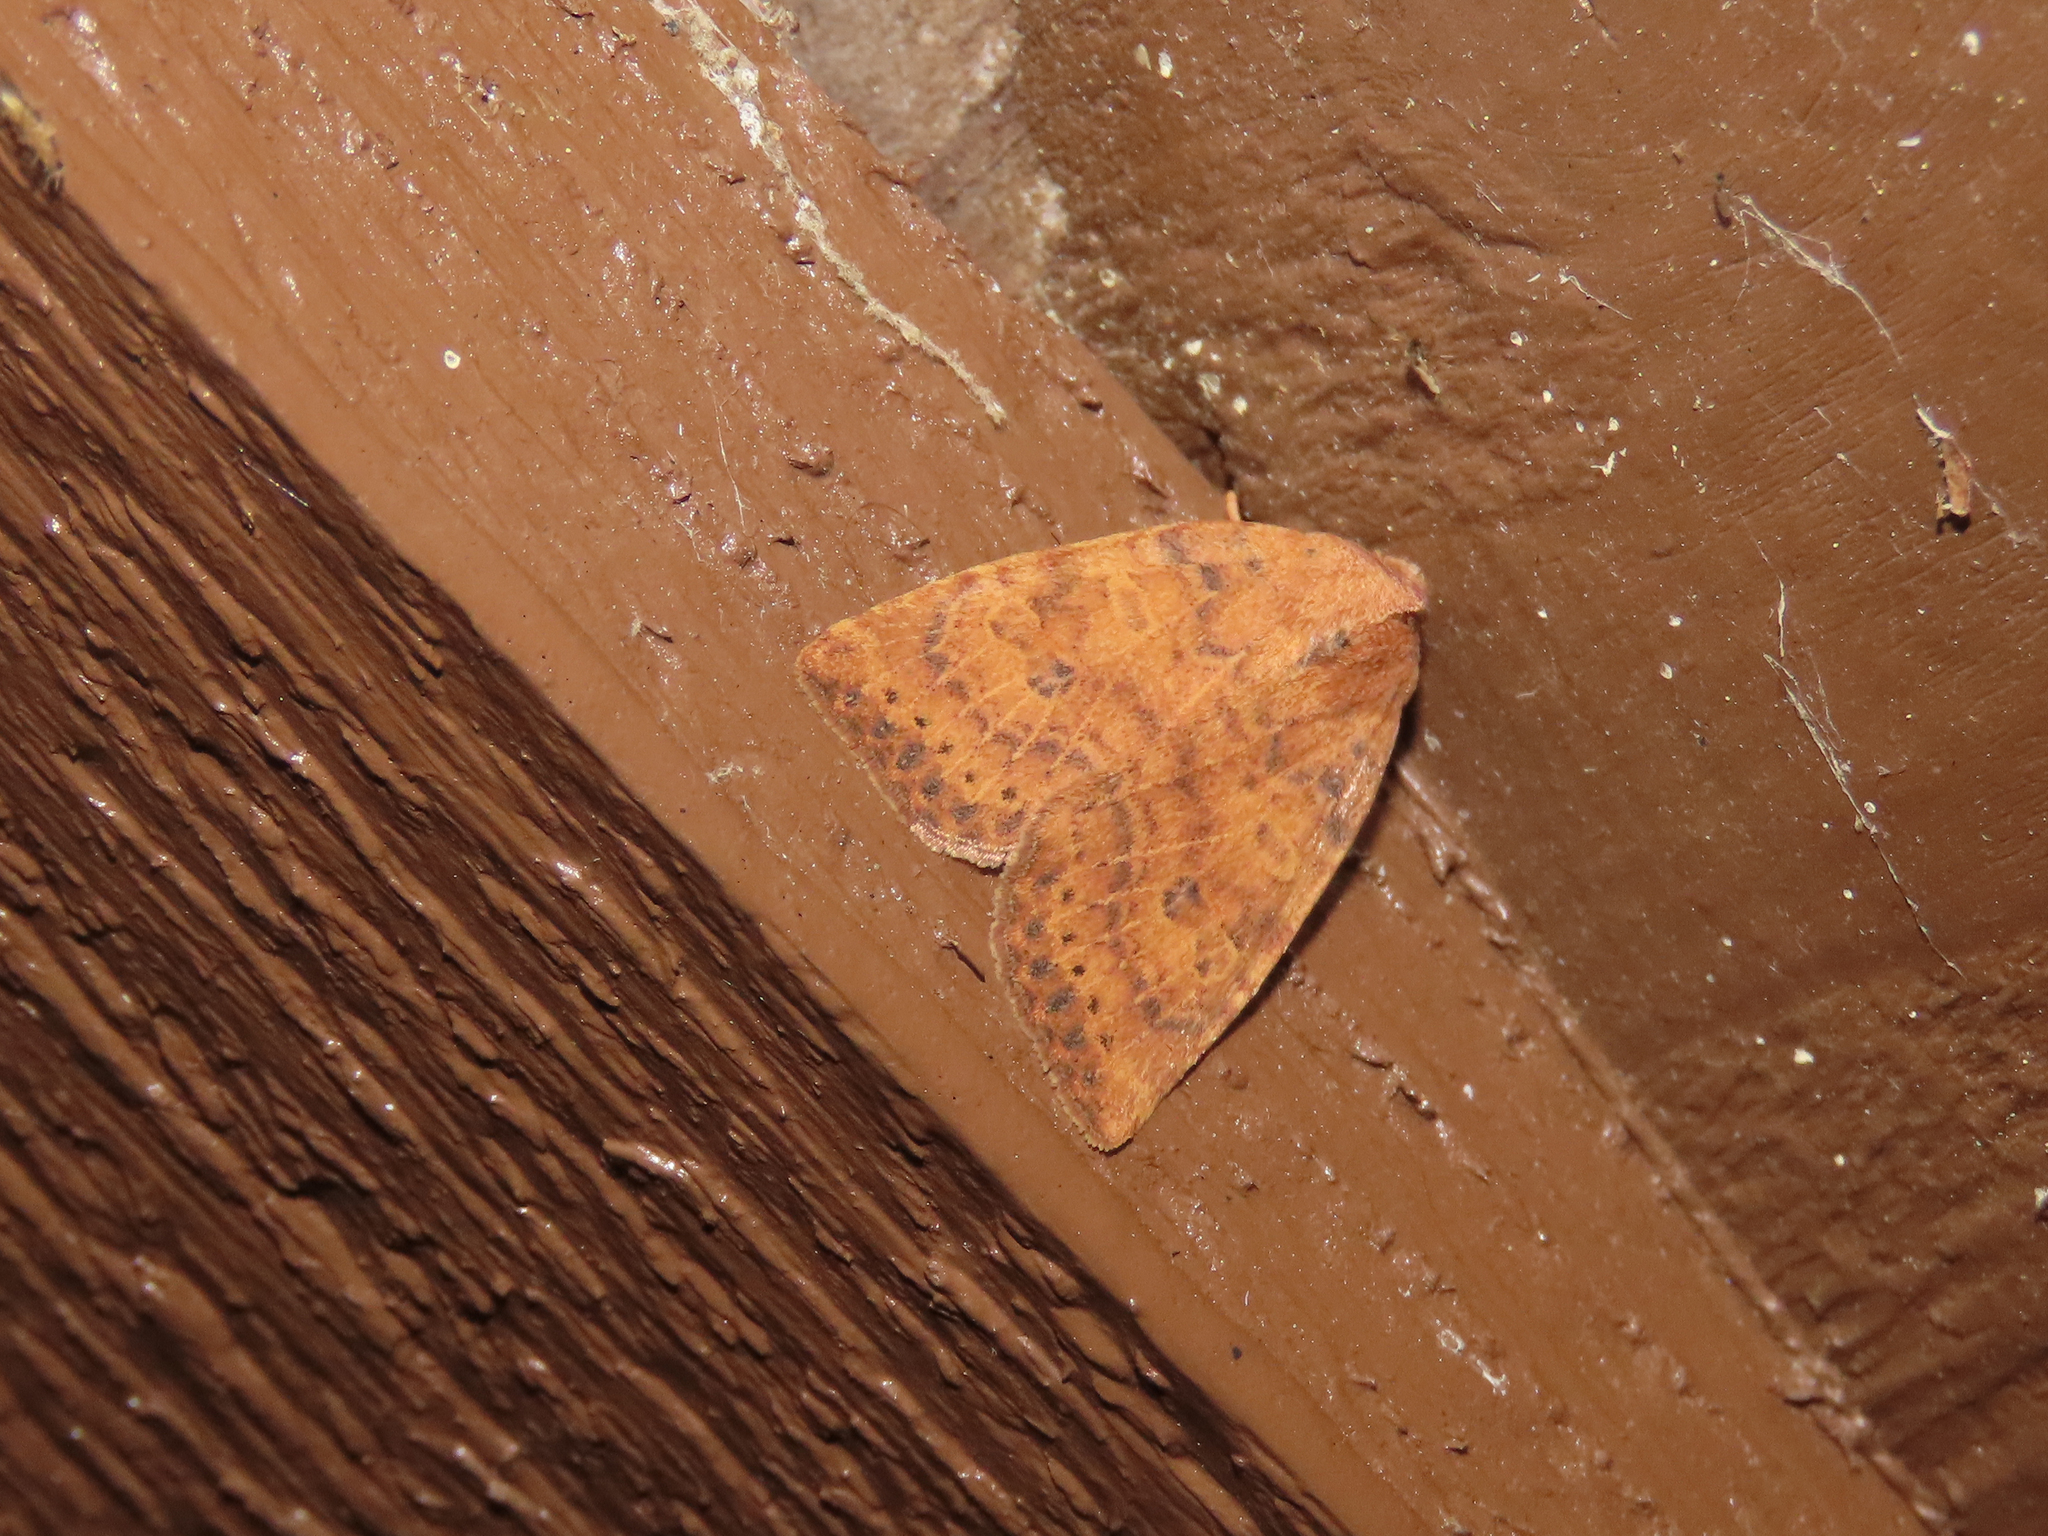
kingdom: Animalia
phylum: Arthropoda
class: Insecta
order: Lepidoptera
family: Noctuidae
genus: Anathix
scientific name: Anathix ralla
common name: Dotted sallow
